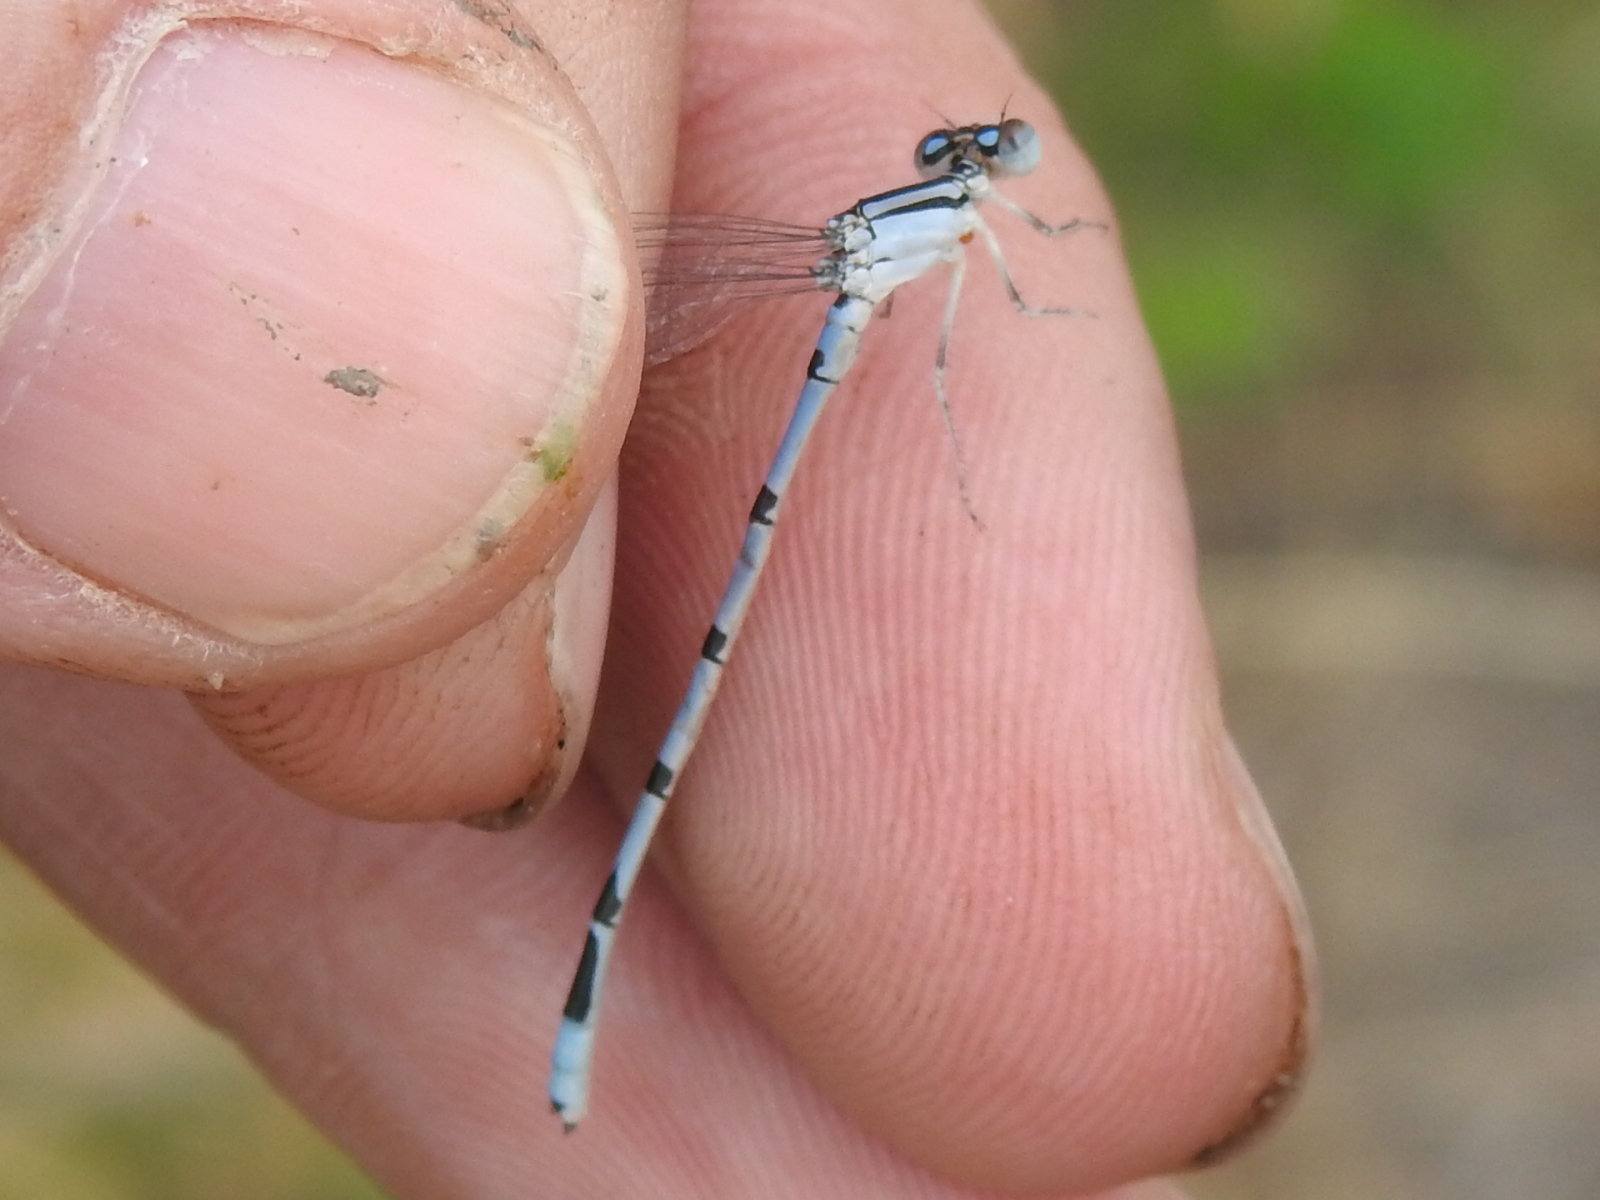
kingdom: Animalia
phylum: Arthropoda
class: Insecta
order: Odonata
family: Coenagrionidae
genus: Enallagma
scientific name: Enallagma civile
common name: Damselfly
